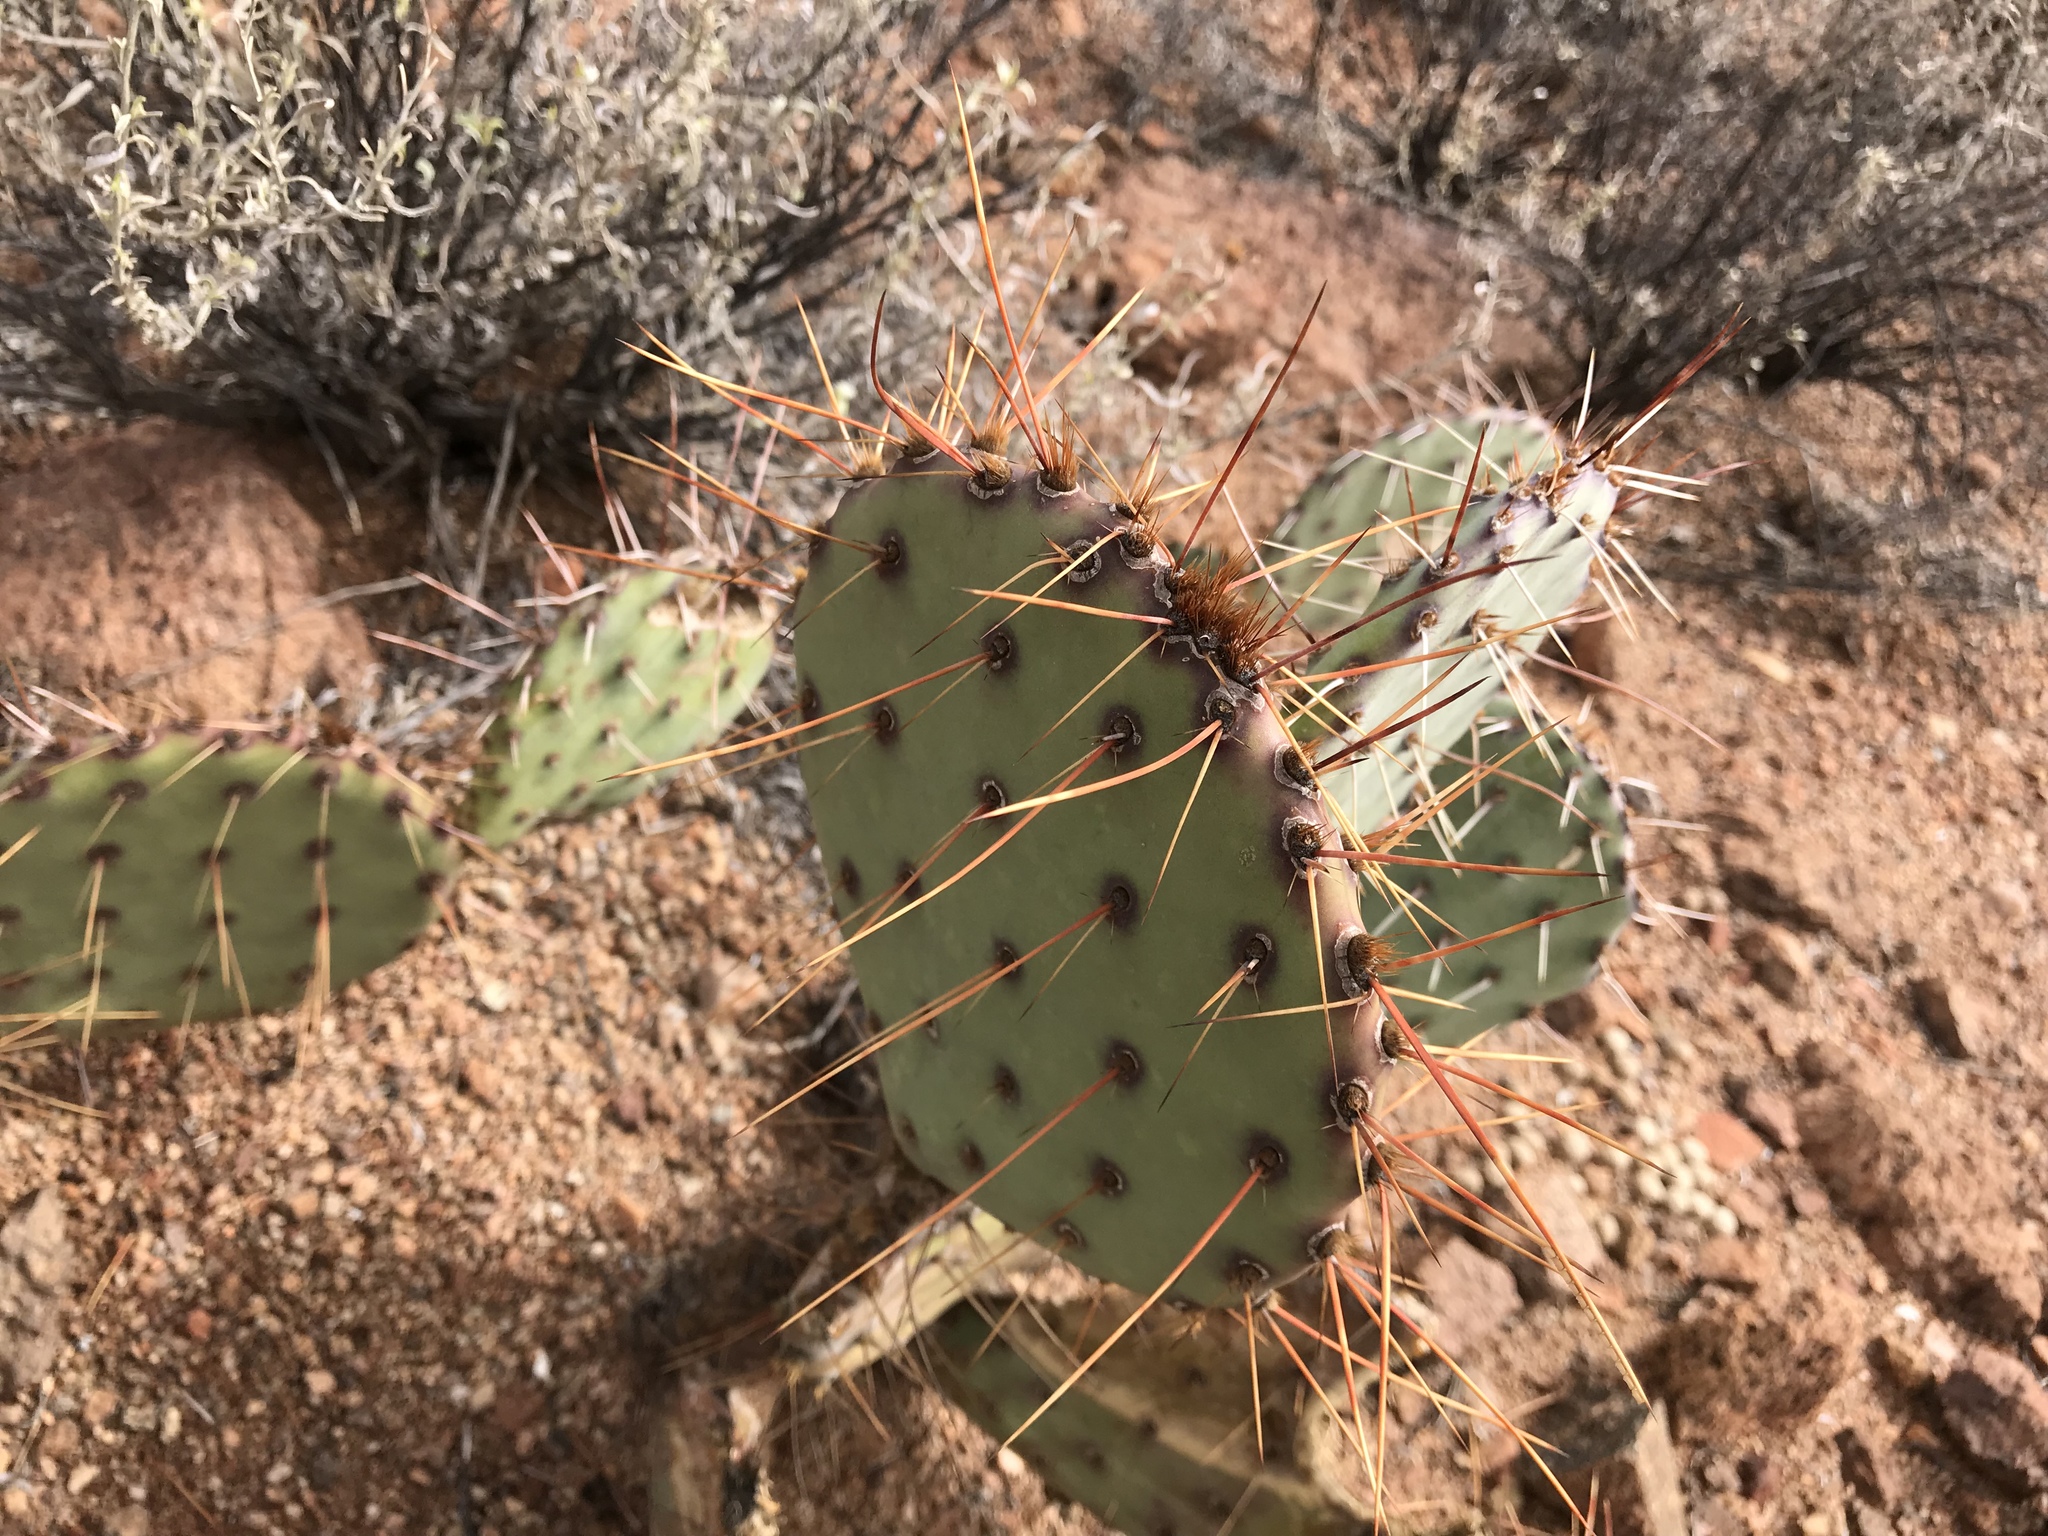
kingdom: Plantae
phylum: Tracheophyta
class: Magnoliopsida
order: Caryophyllales
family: Cactaceae
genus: Opuntia
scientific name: Opuntia phaeacantha
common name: New mexico prickly-pear
